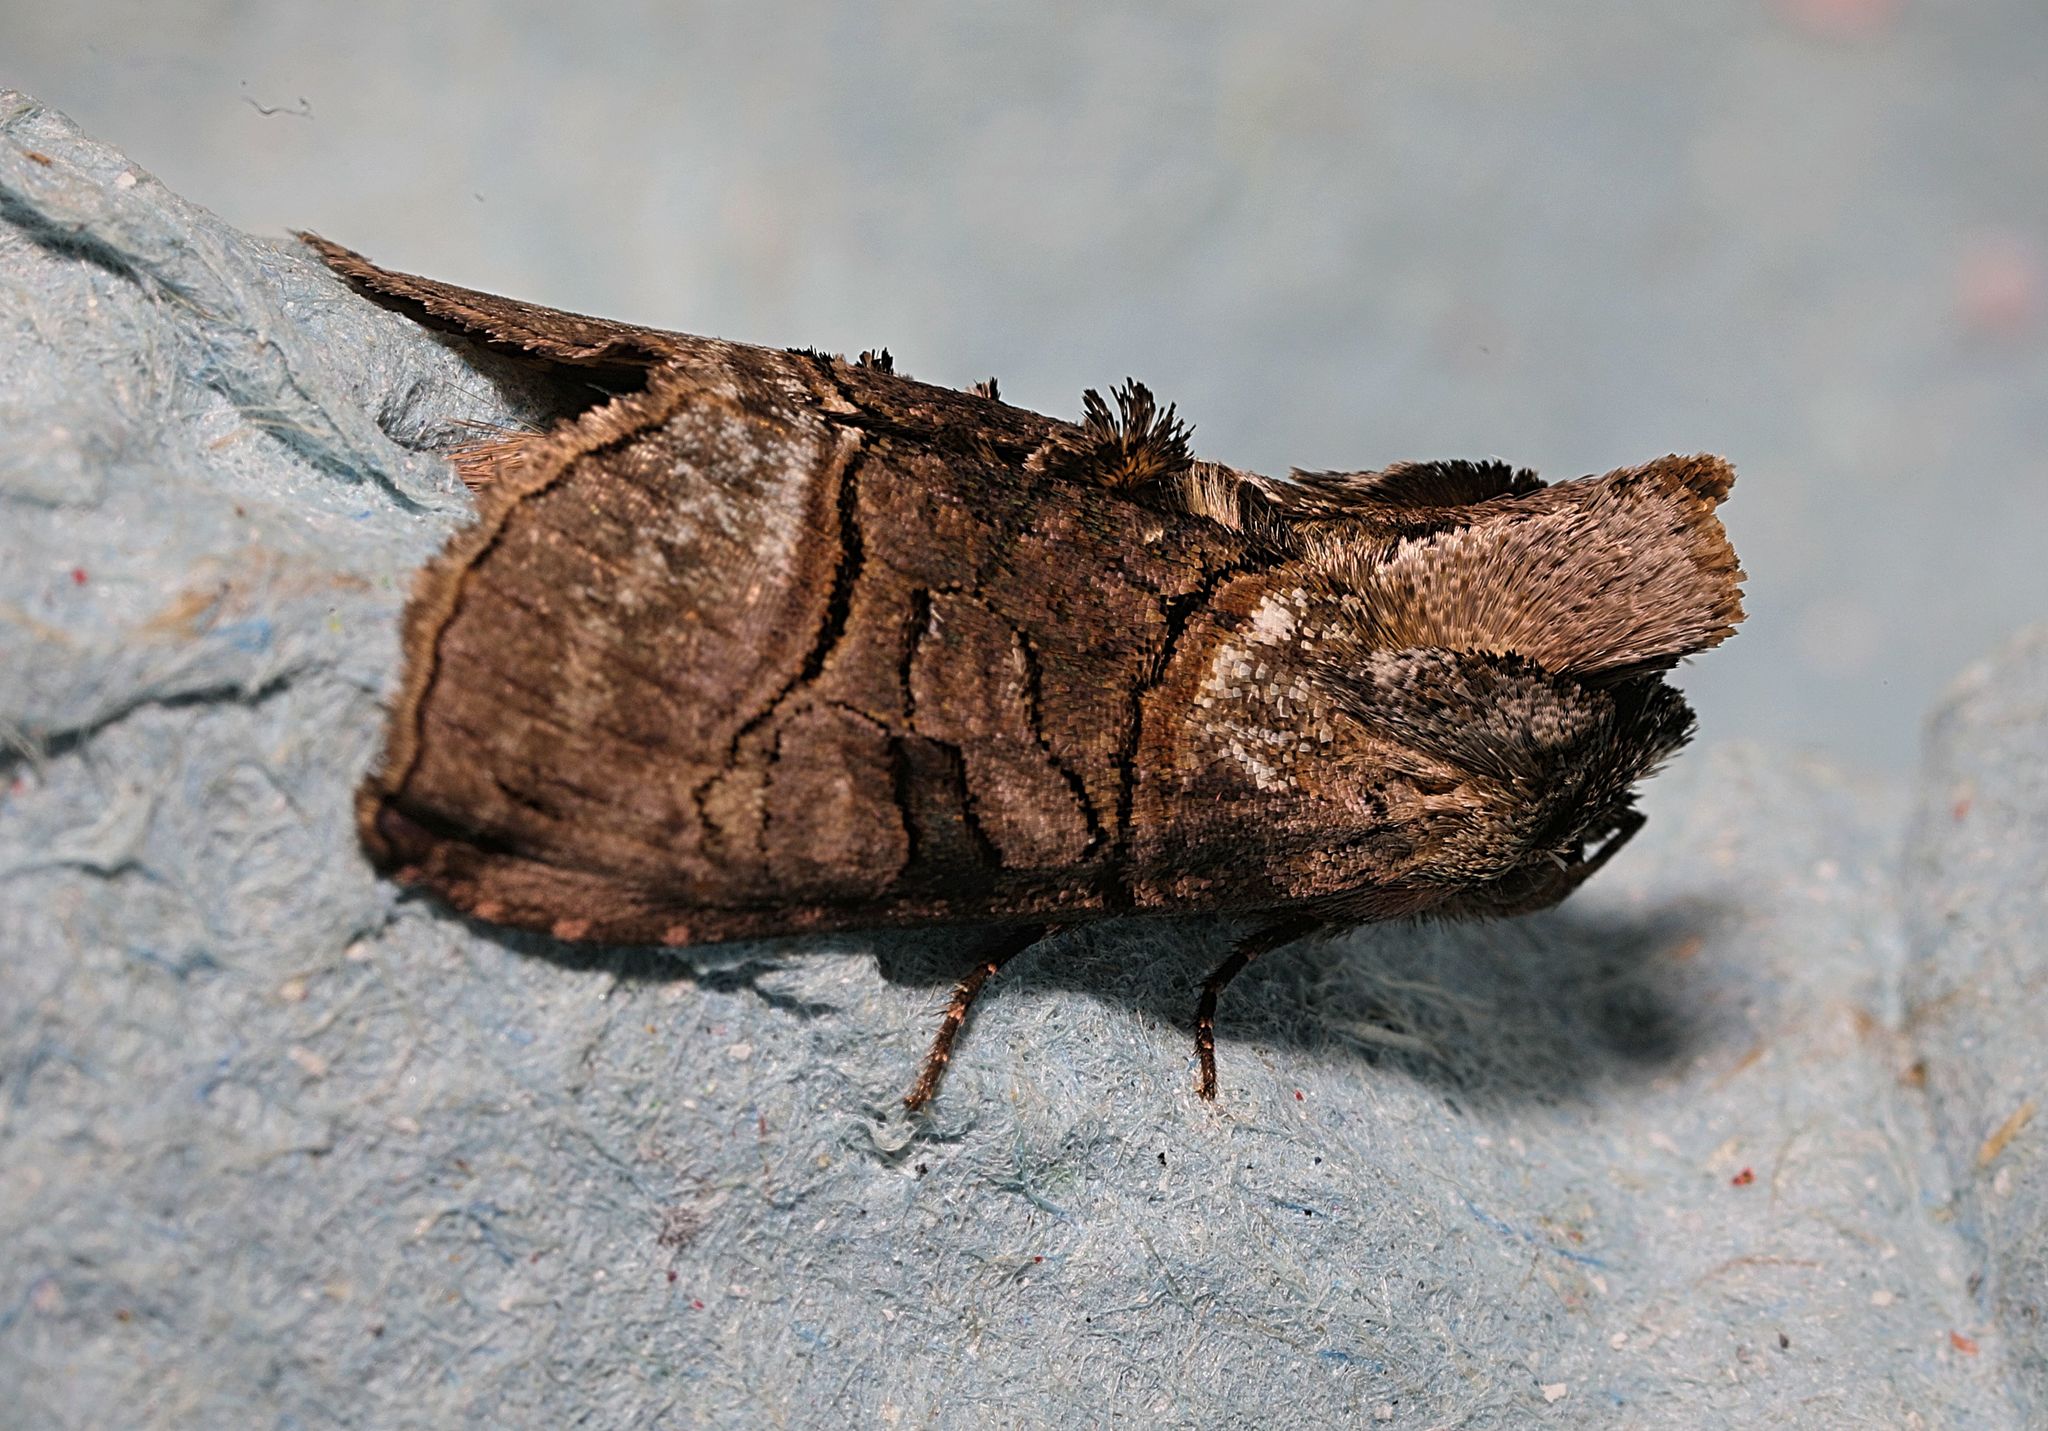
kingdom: Animalia
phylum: Arthropoda
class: Insecta
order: Lepidoptera
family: Noctuidae
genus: Abrostola
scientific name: Abrostola tripartita
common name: Spectacle
